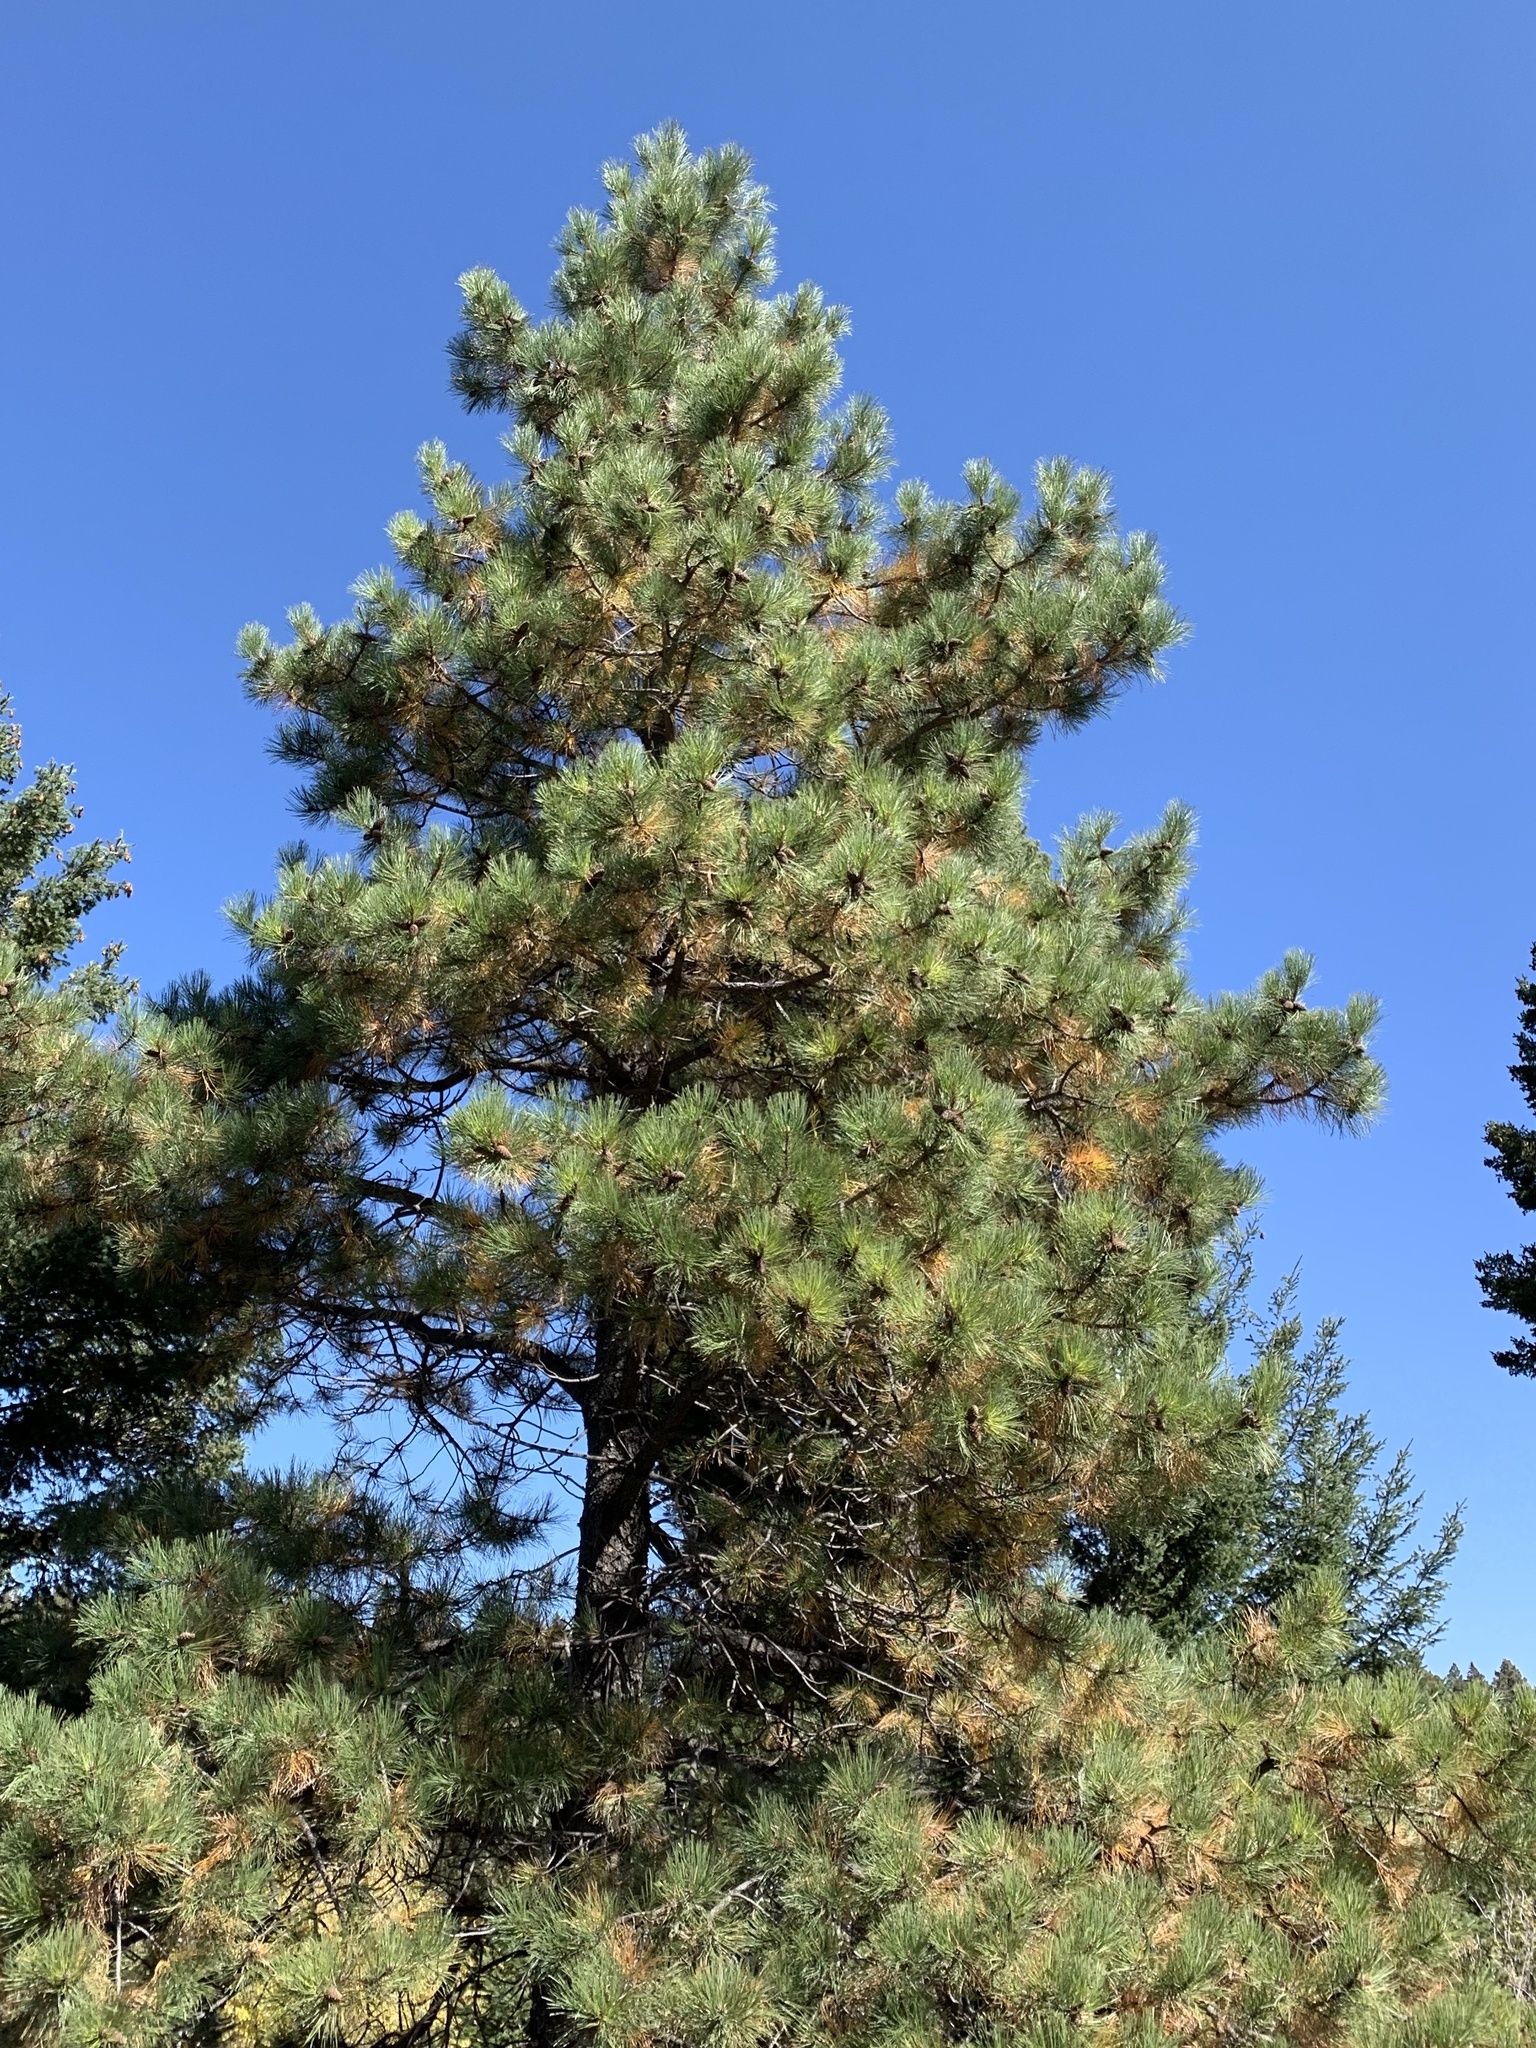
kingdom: Plantae
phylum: Tracheophyta
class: Pinopsida
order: Pinales
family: Pinaceae
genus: Pinus
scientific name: Pinus ponderosa
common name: Western yellow-pine
